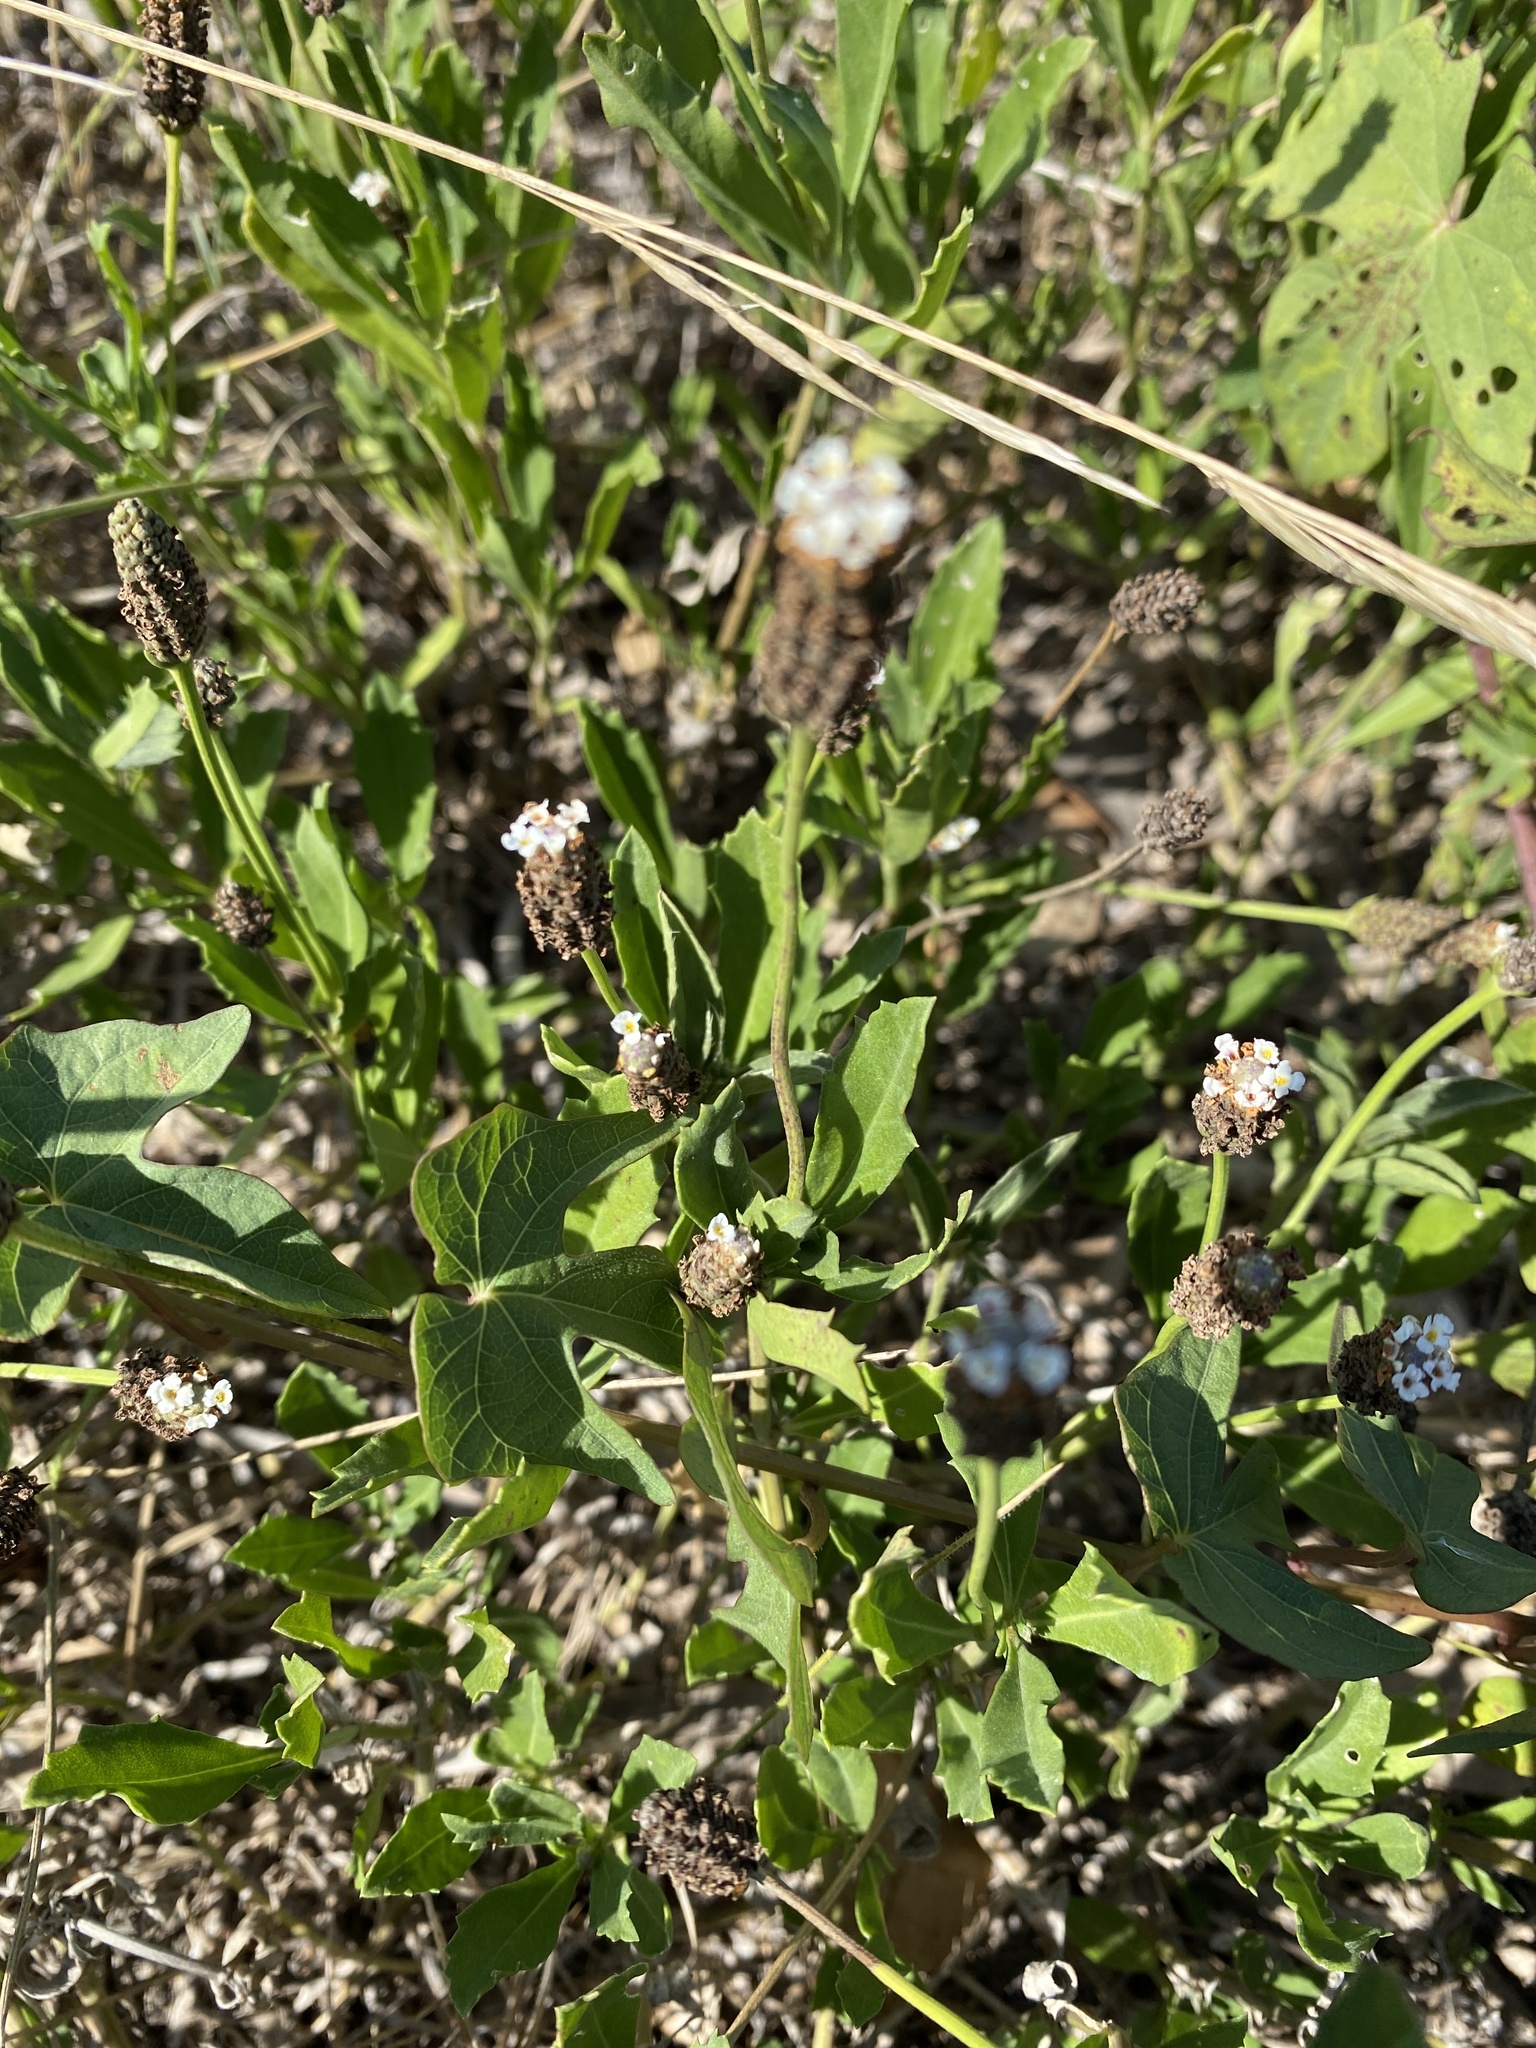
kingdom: Plantae
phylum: Tracheophyta
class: Magnoliopsida
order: Lamiales
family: Verbenaceae
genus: Phyla
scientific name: Phyla nodiflora
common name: Frogfruit
